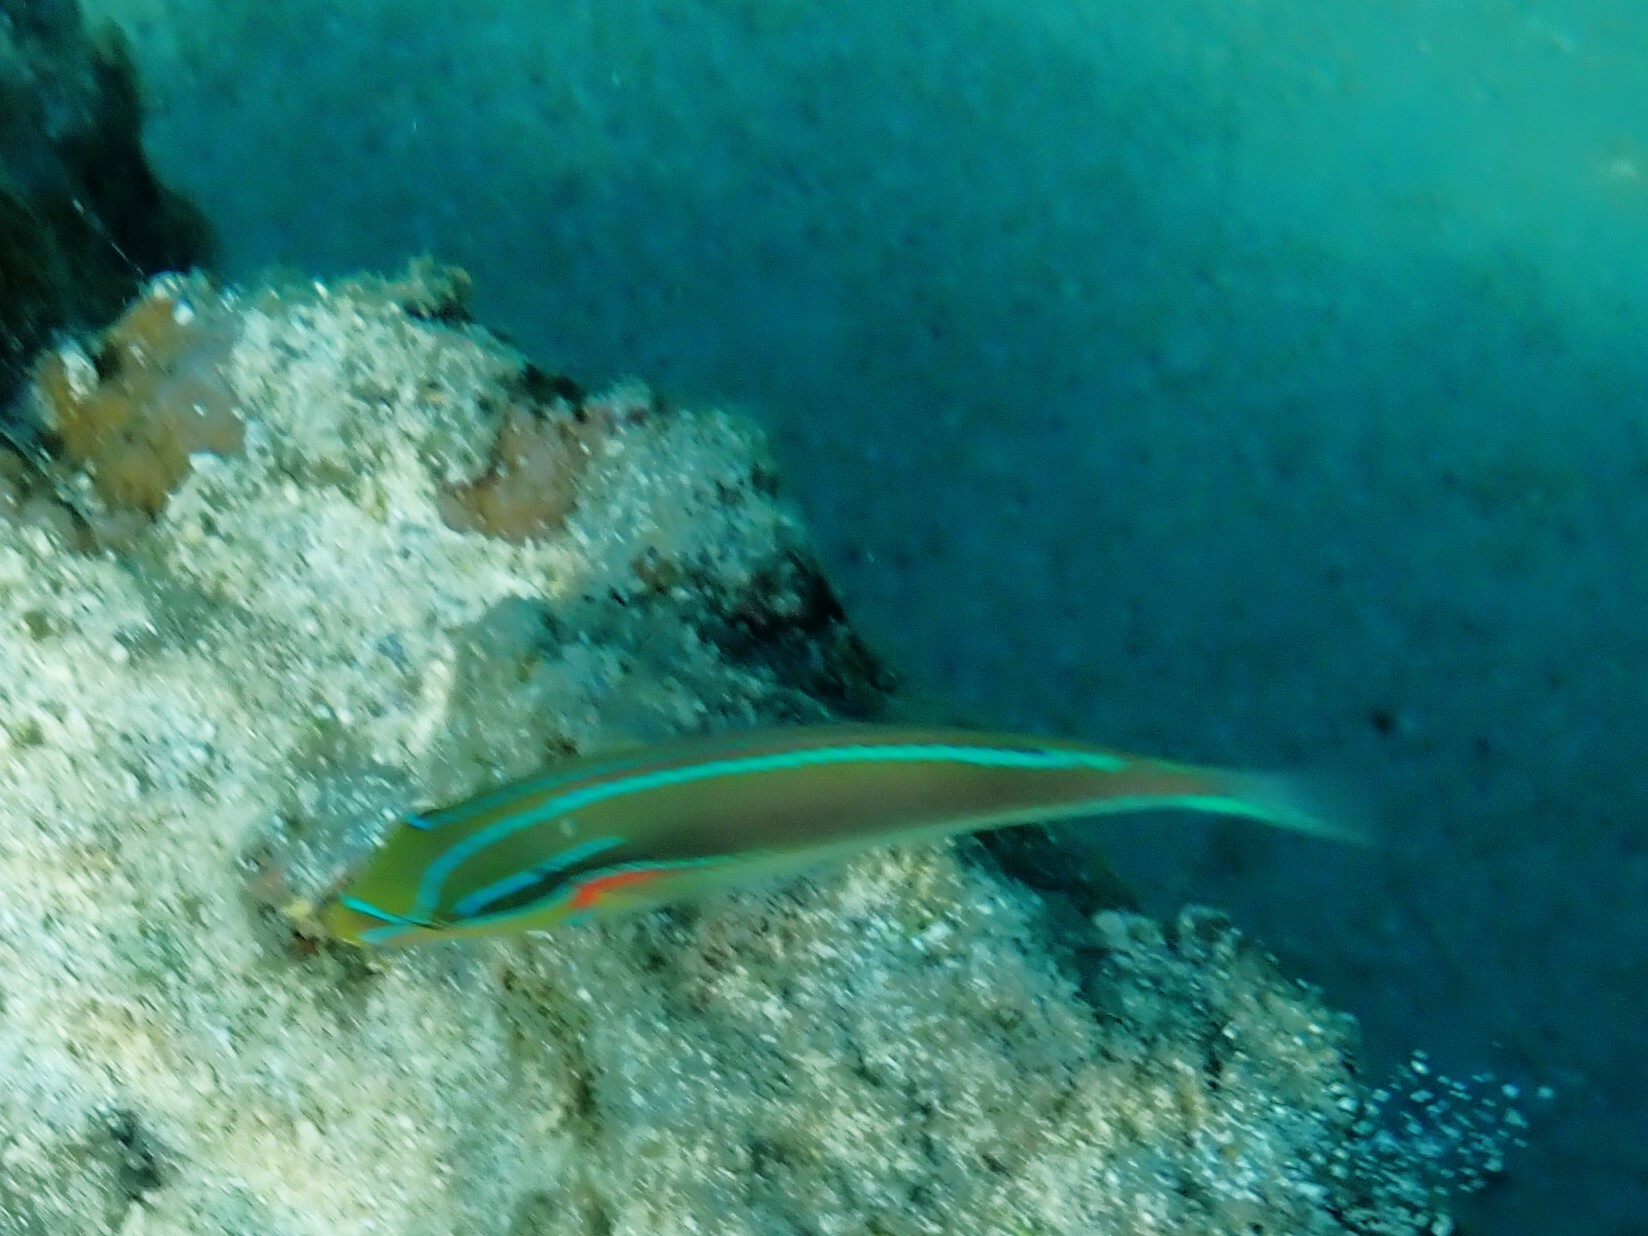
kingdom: Animalia
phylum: Chordata
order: Perciformes
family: Labridae
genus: Stethojulis
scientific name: Stethojulis bandanensis
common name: Red shoulder wrasse
